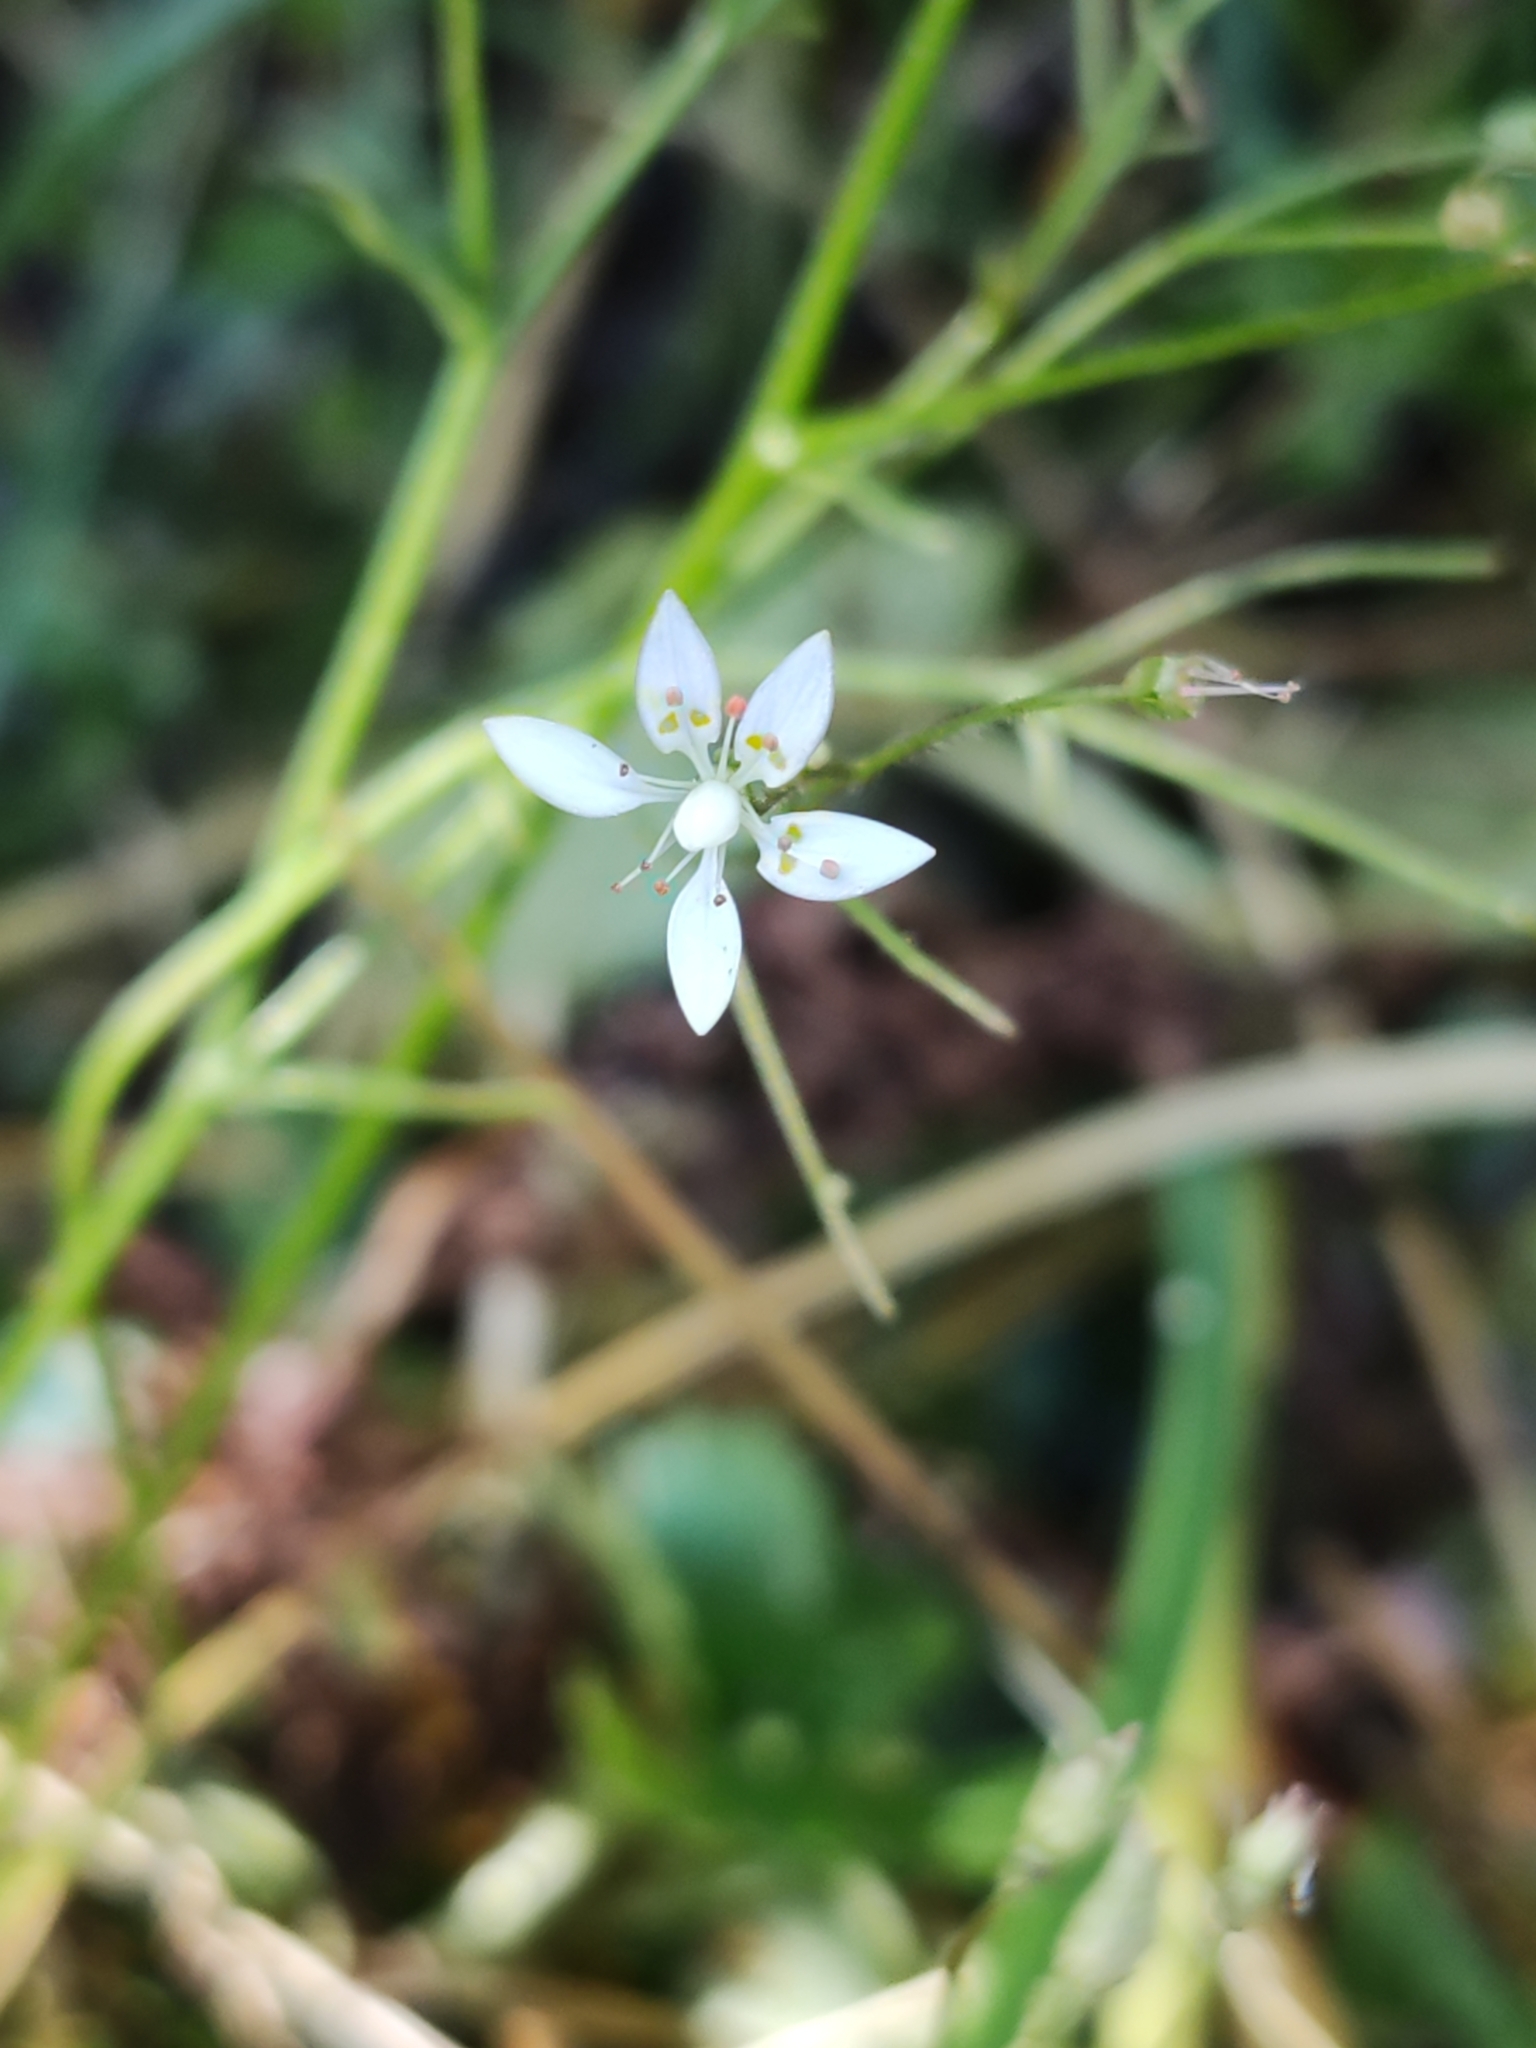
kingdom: Plantae
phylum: Tracheophyta
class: Magnoliopsida
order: Saxifragales
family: Saxifragaceae
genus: Micranthes
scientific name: Micranthes stellaris
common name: Starry saxifrage
